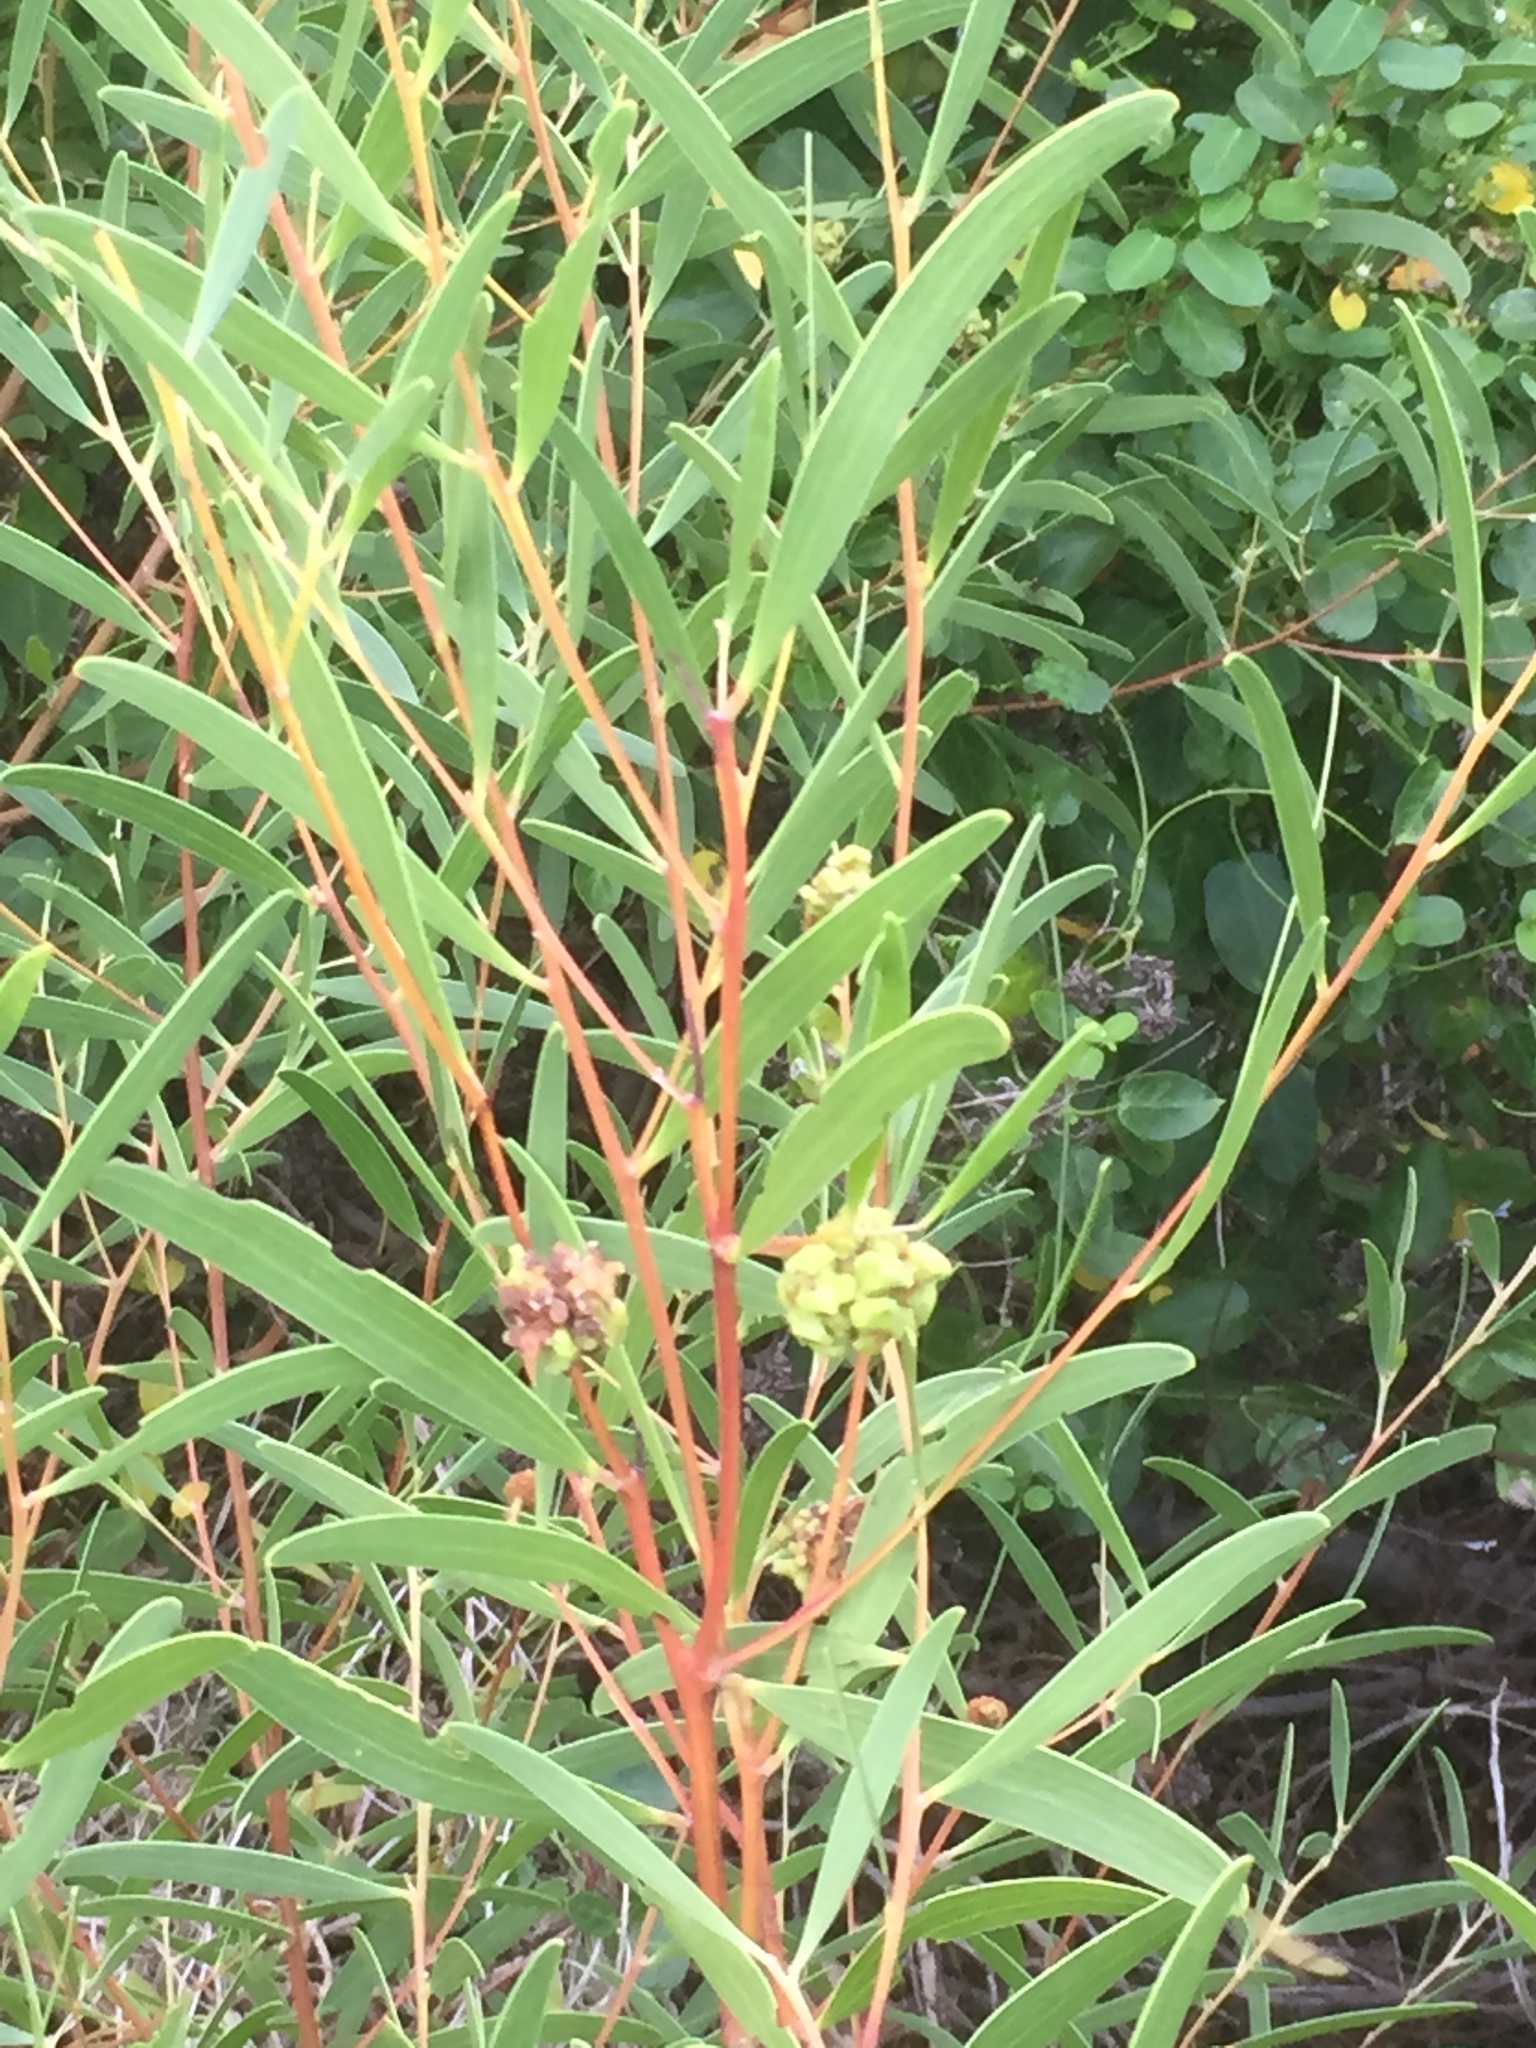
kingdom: Plantae
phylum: Tracheophyta
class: Magnoliopsida
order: Fabales
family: Fabaceae
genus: Acacia
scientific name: Acacia cyclops
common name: Coastal wattle
